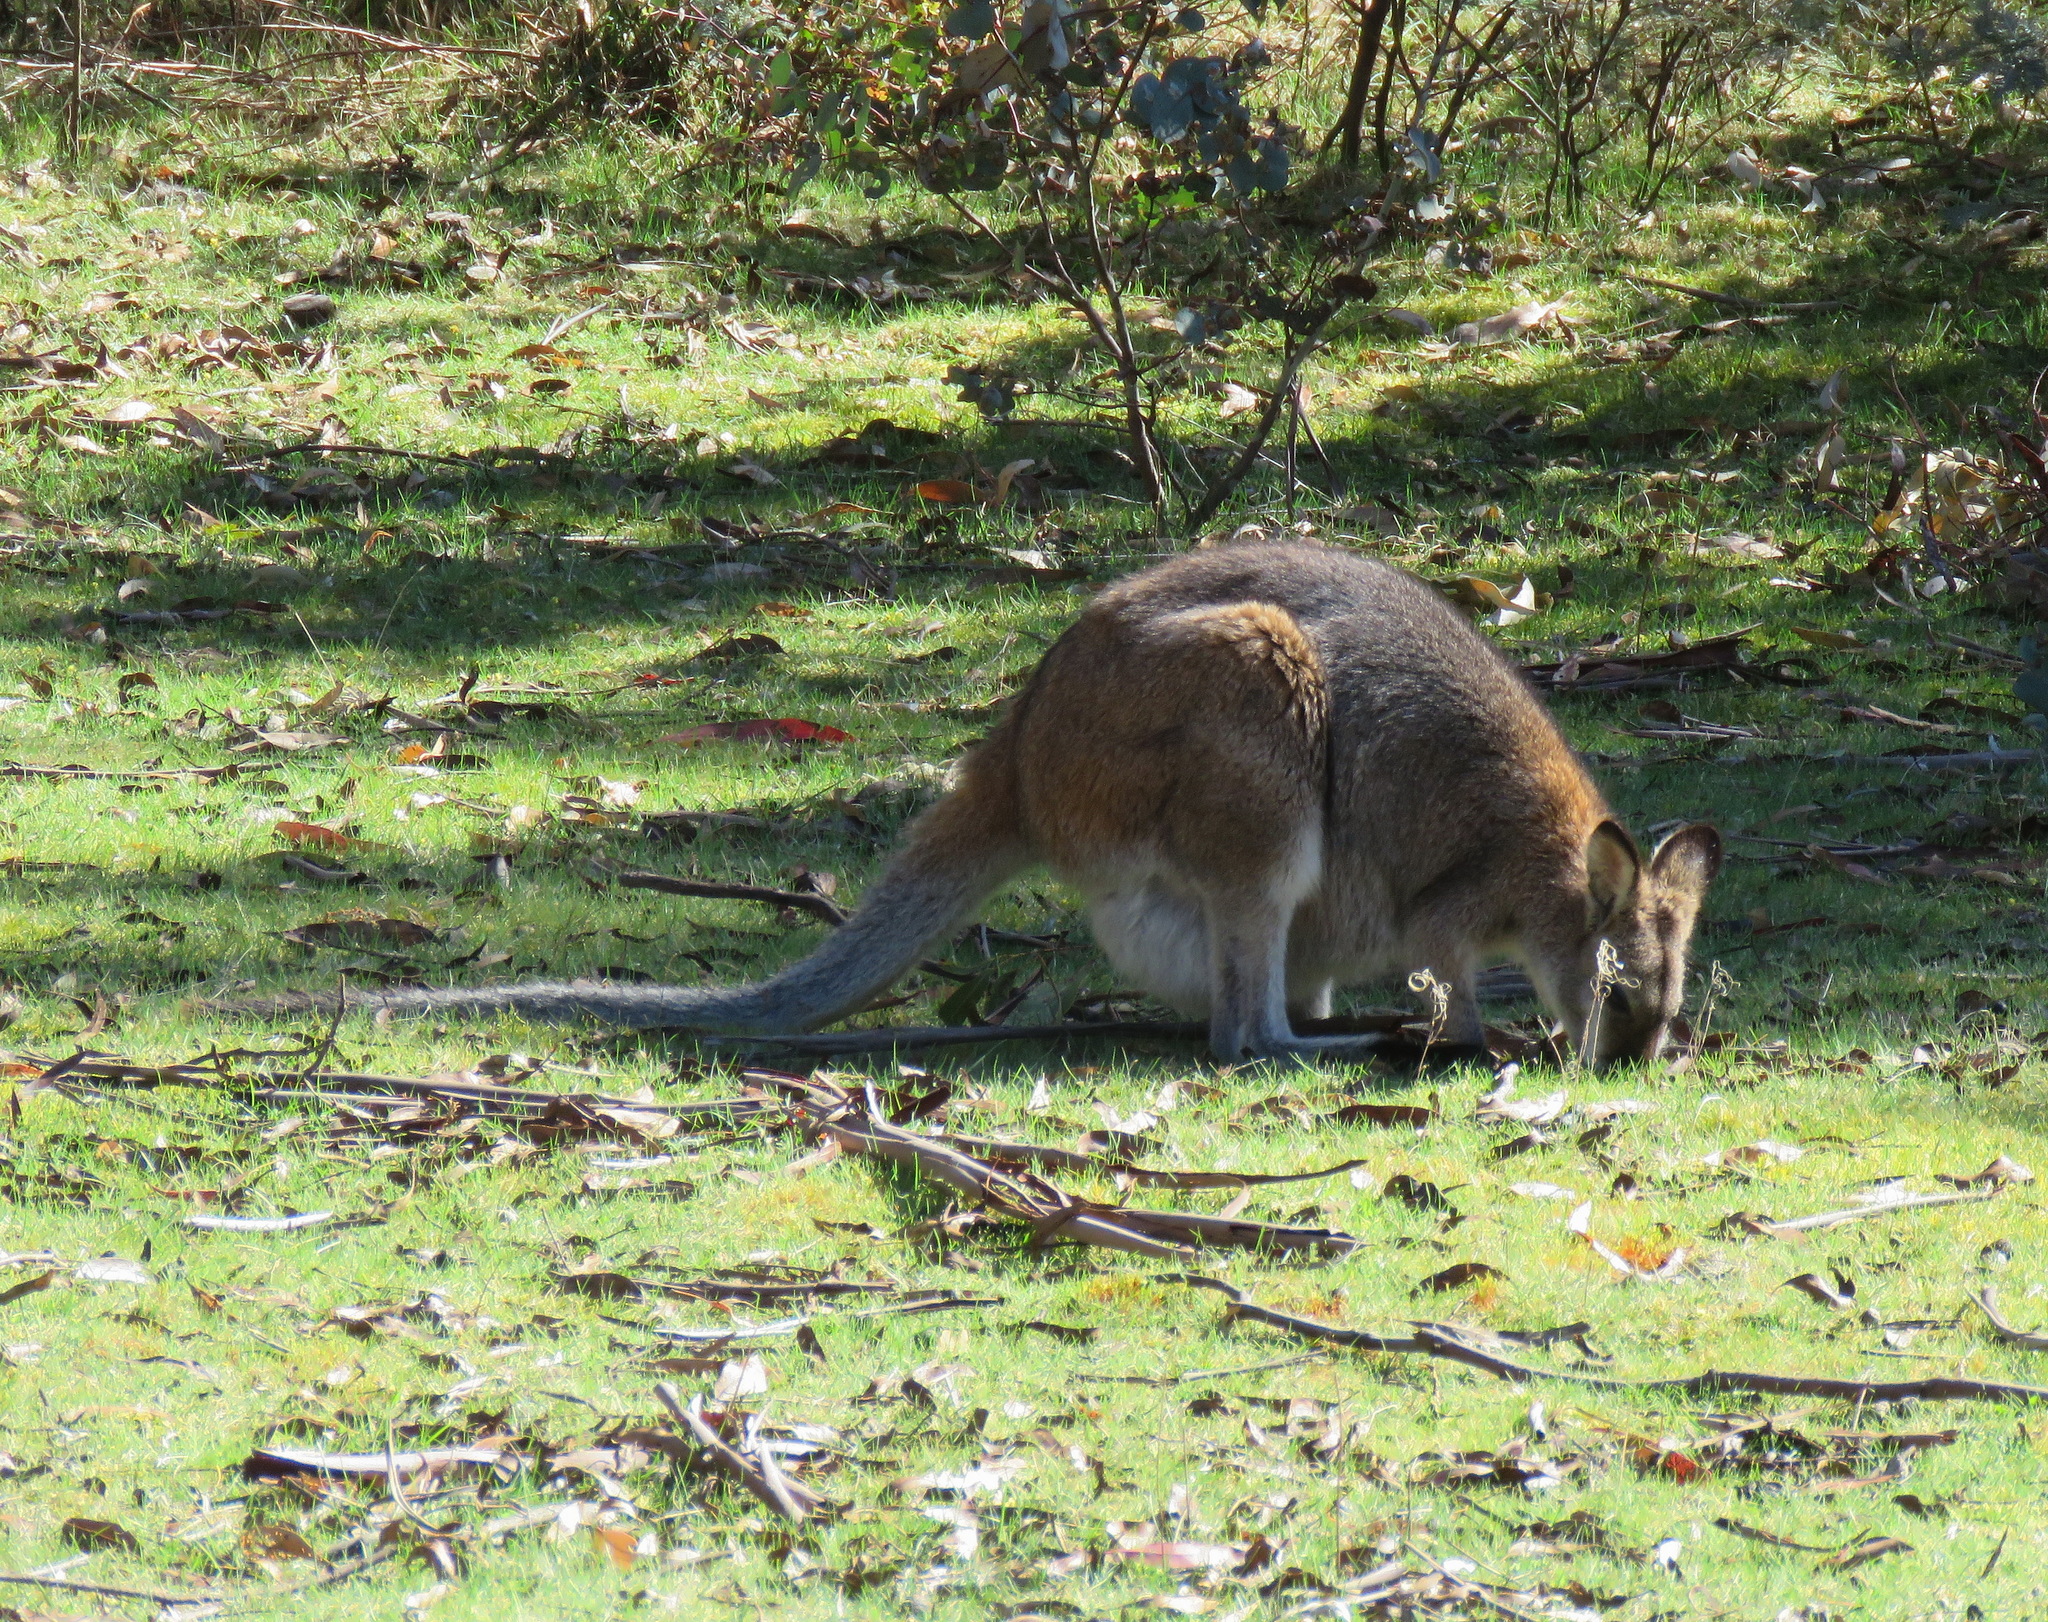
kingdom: Animalia
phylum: Chordata
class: Mammalia
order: Diprotodontia
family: Macropodidae
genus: Notamacropus
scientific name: Notamacropus rufogriseus
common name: Red-necked wallaby
